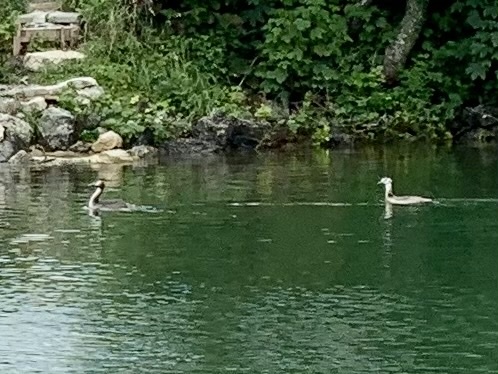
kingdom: Animalia
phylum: Chordata
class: Aves
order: Podicipediformes
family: Podicipedidae
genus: Podiceps
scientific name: Podiceps cristatus
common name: Great crested grebe
